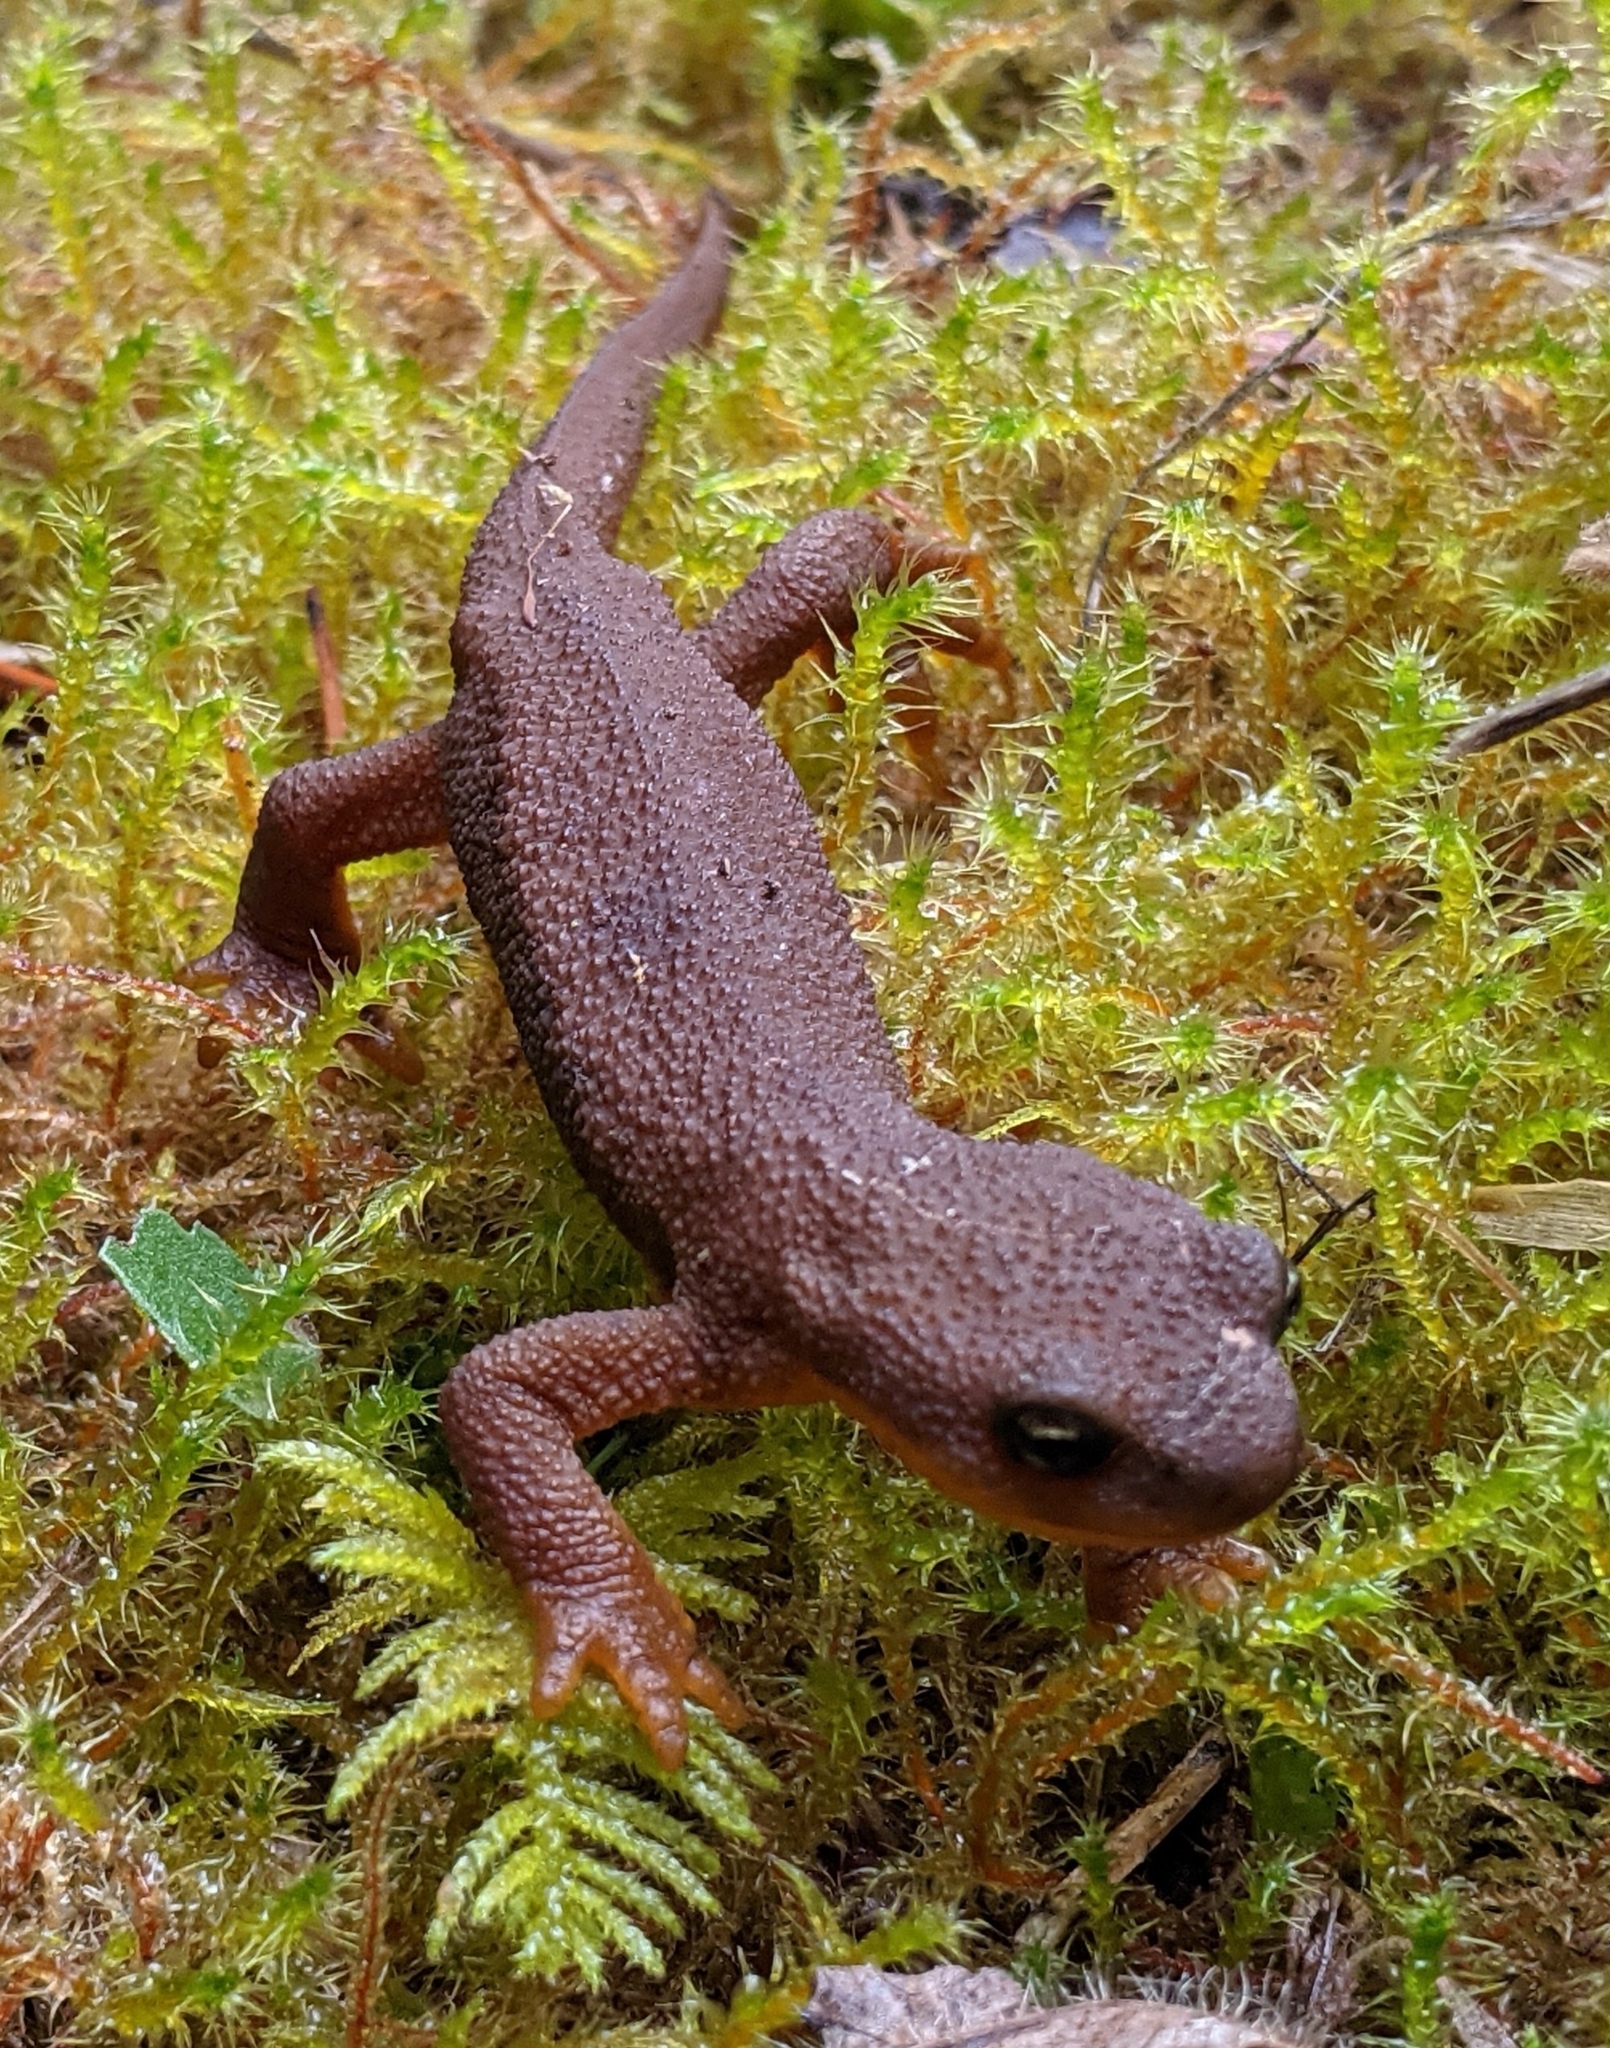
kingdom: Animalia
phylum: Chordata
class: Amphibia
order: Caudata
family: Salamandridae
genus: Taricha
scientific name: Taricha granulosa
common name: Roughskin newt
